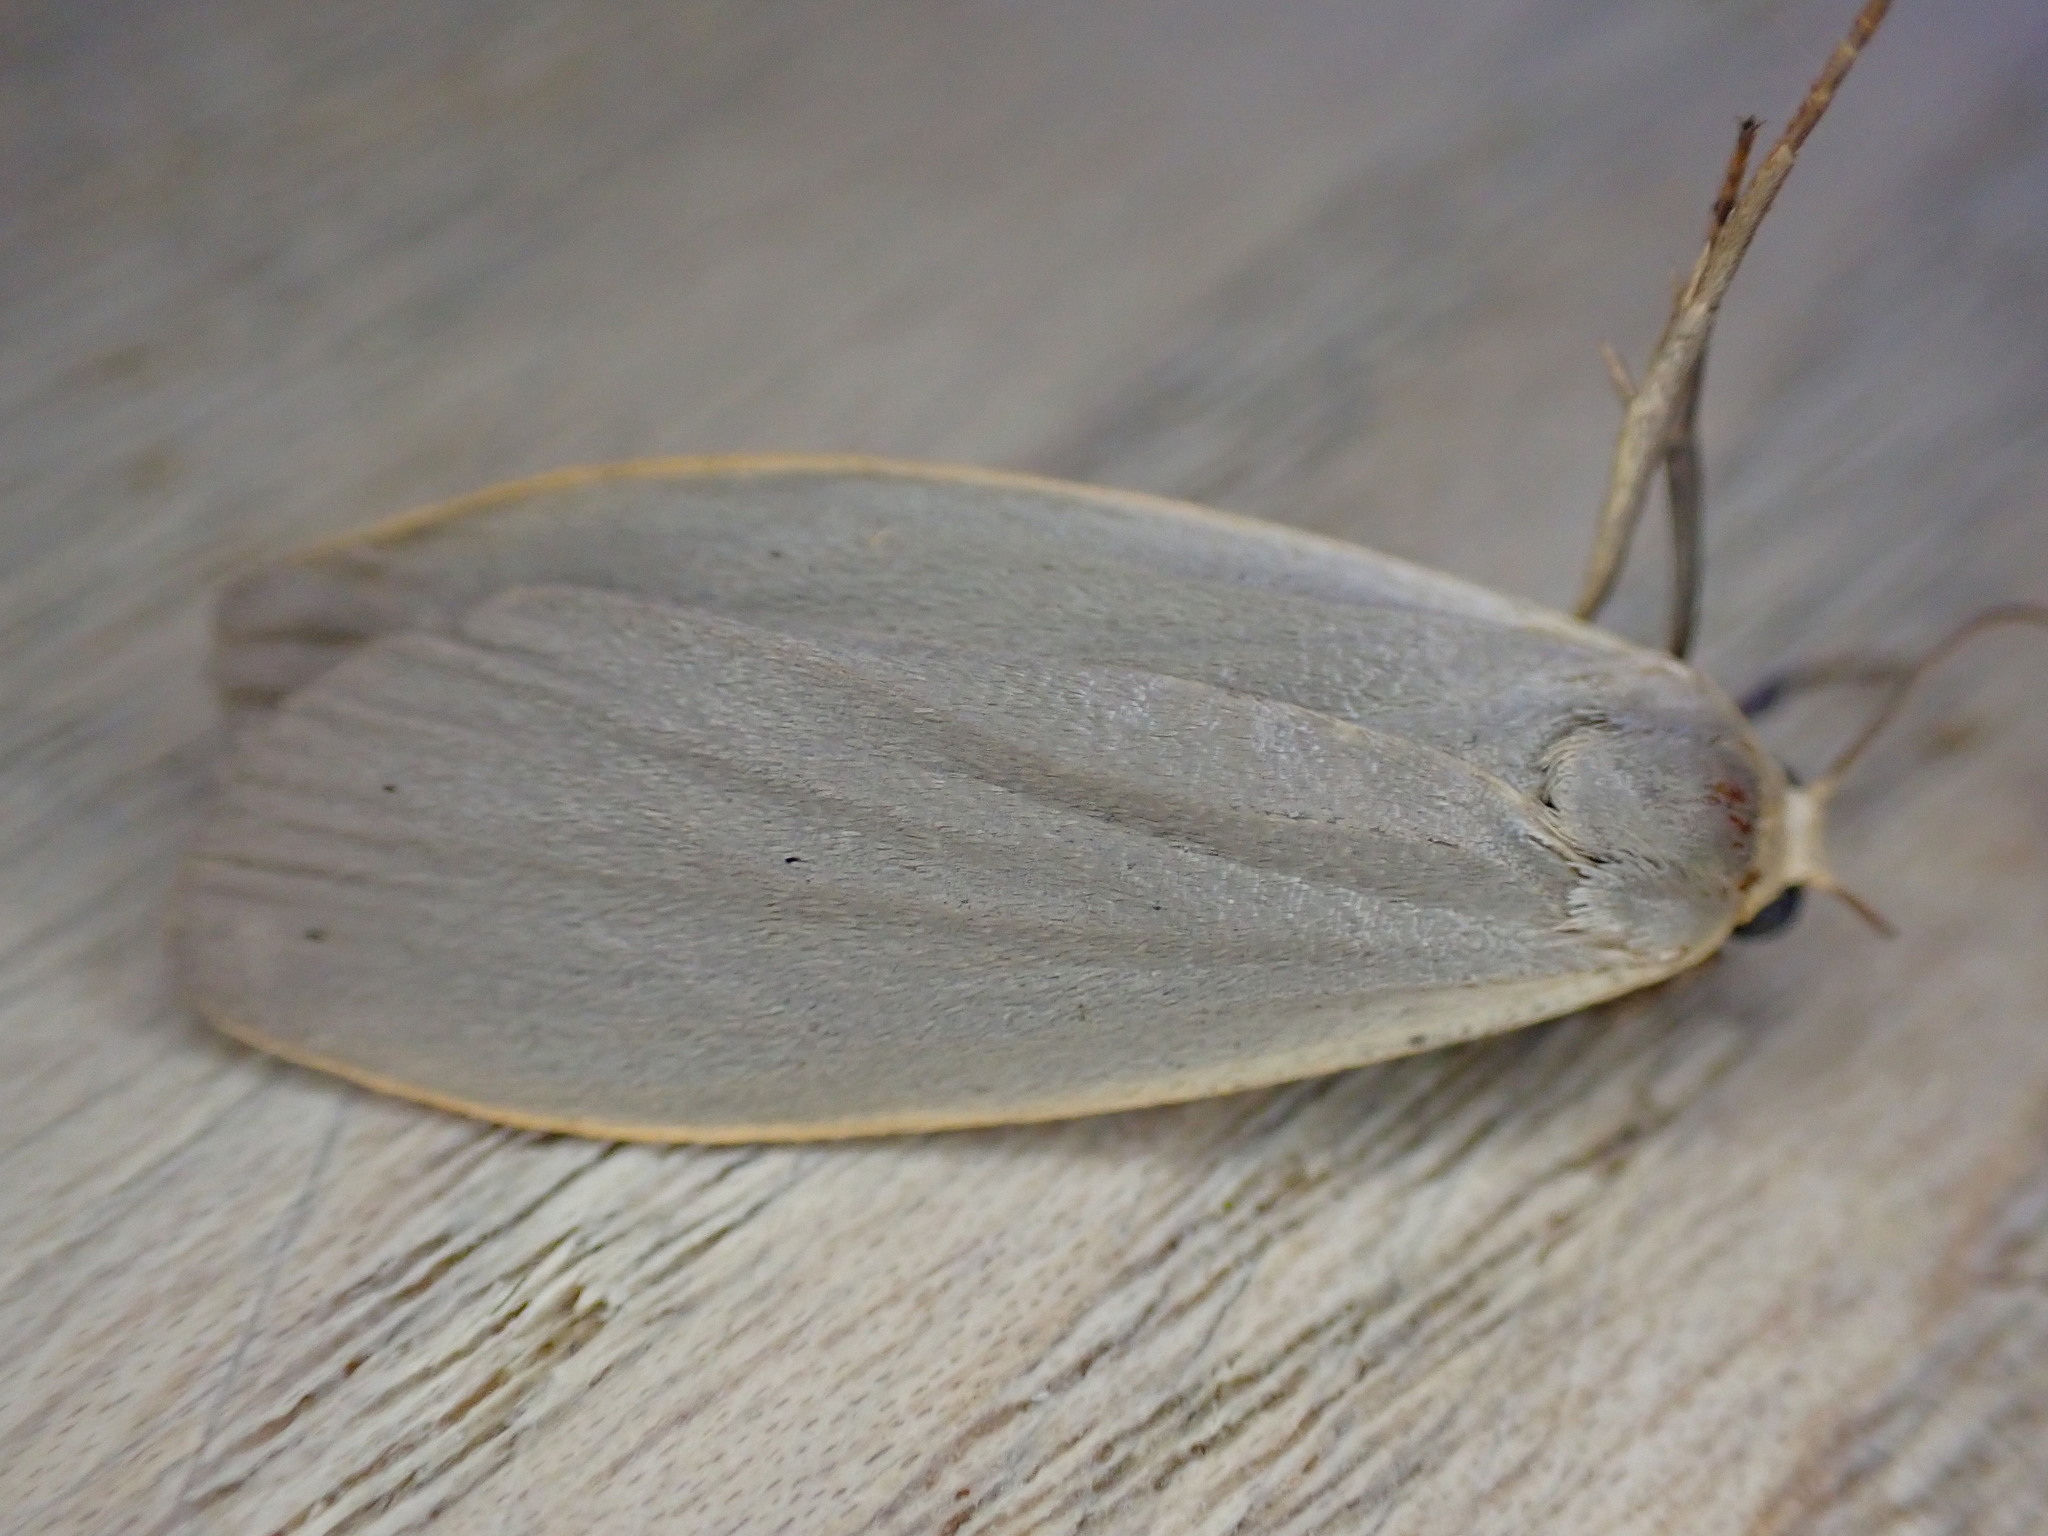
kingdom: Animalia
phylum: Arthropoda
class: Insecta
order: Lepidoptera
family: Erebidae
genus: Collita
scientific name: Collita griseola
